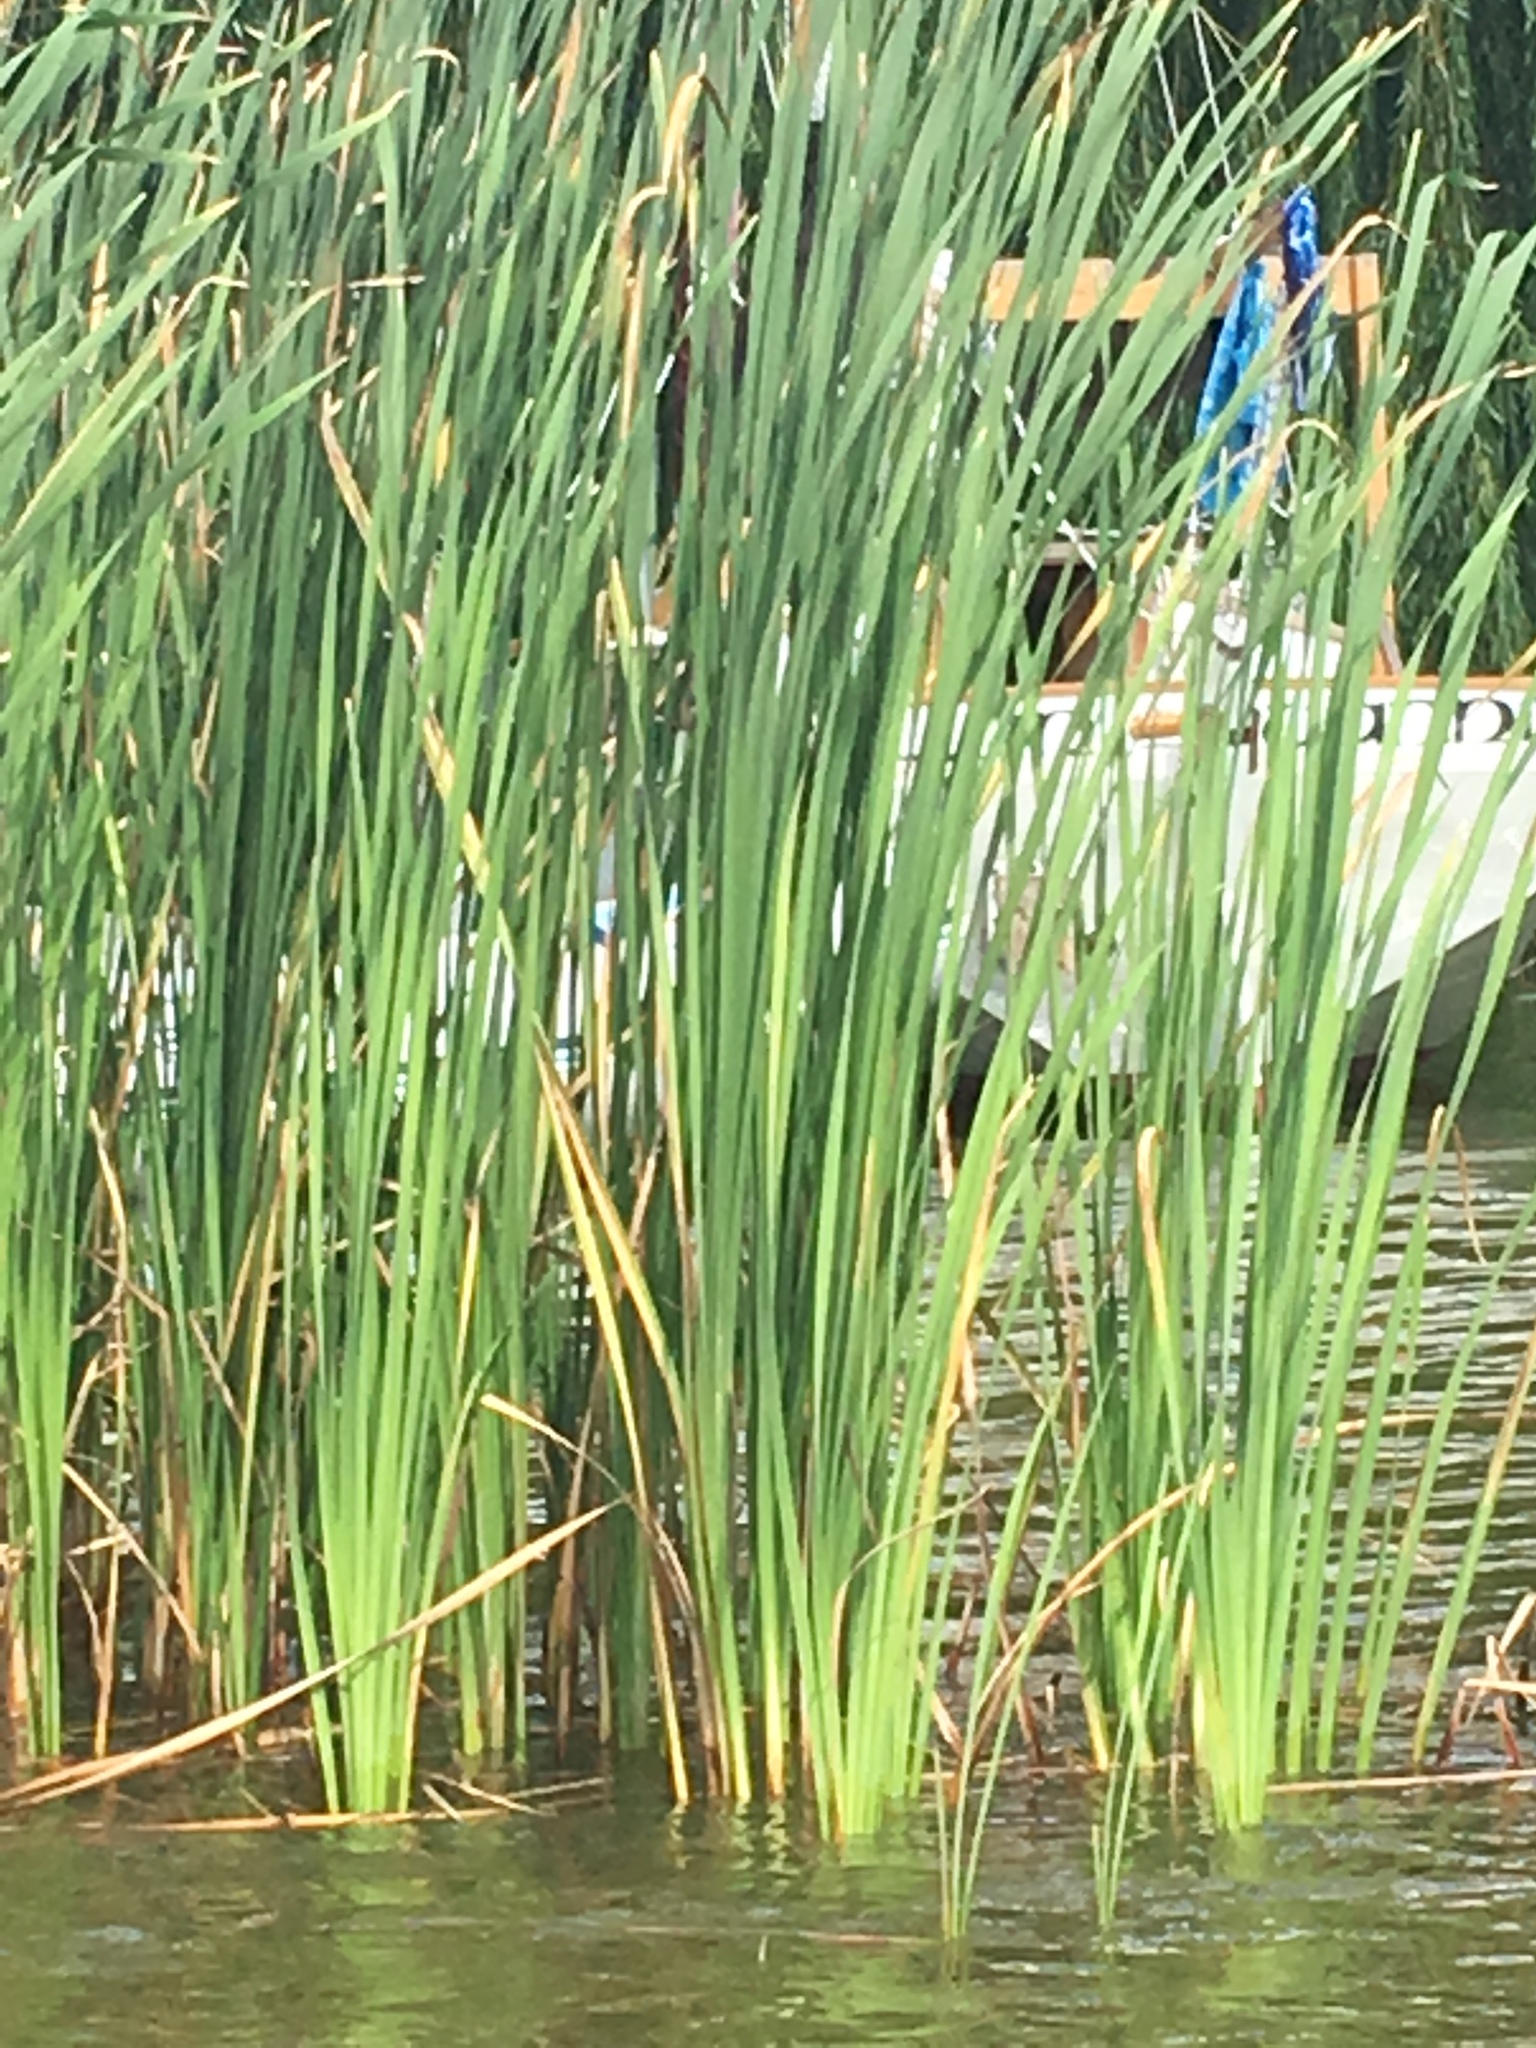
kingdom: Plantae
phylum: Tracheophyta
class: Liliopsida
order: Poales
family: Typhaceae
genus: Typha
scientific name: Typha latifolia
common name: Broadleaf cattail
